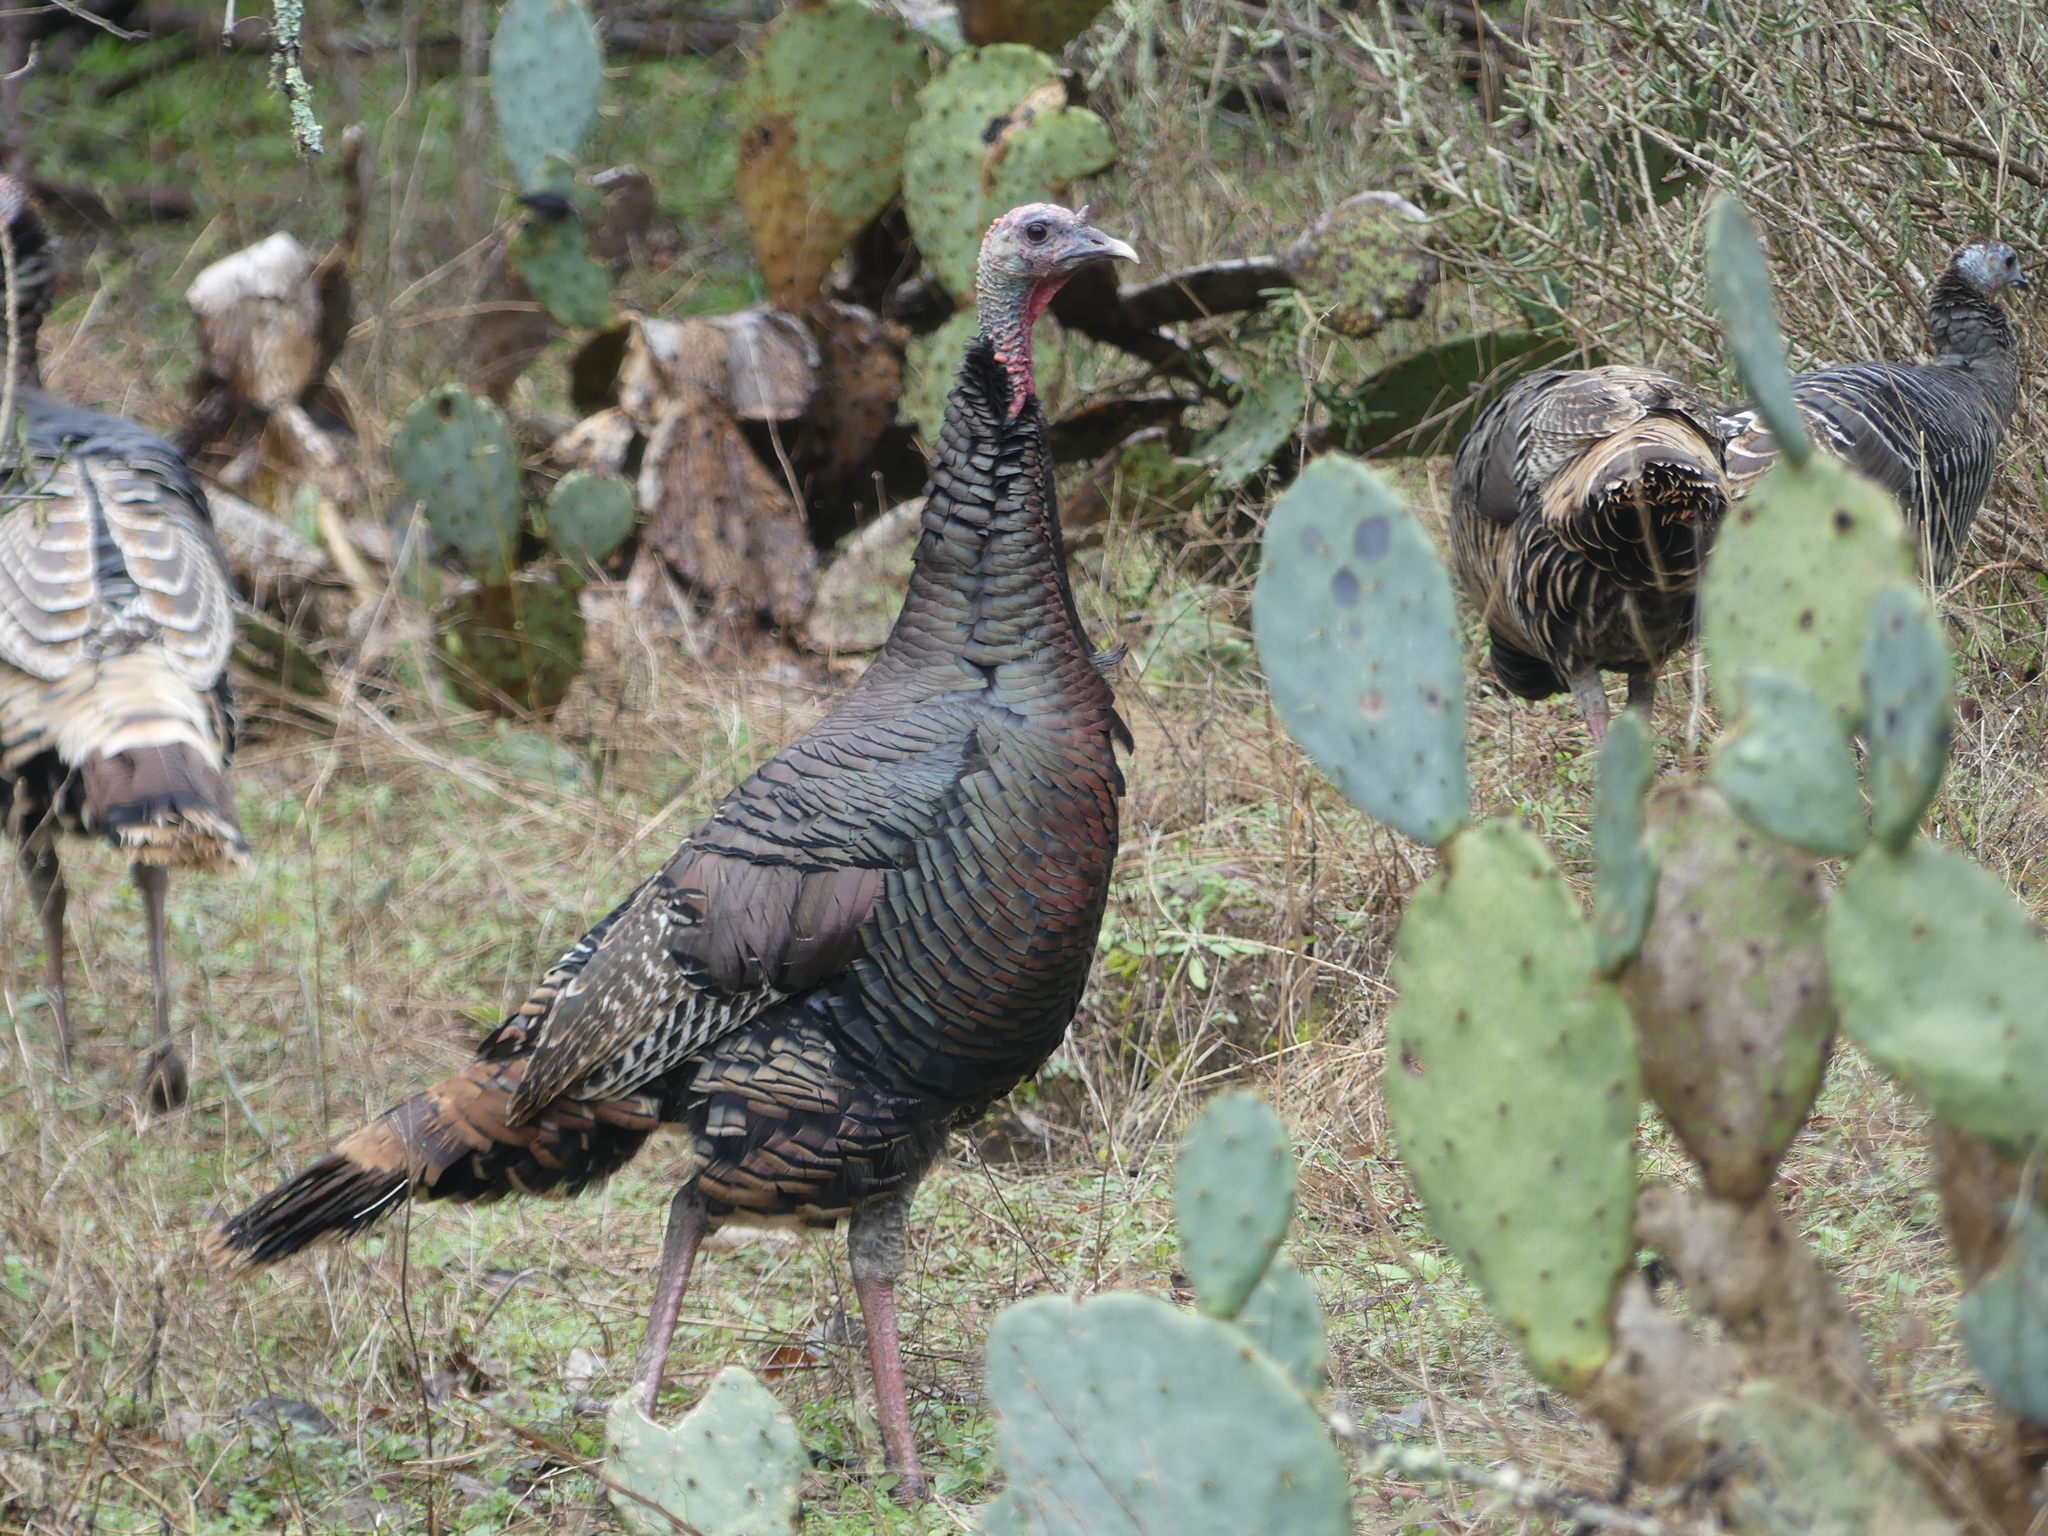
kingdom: Animalia
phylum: Chordata
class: Aves
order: Galliformes
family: Phasianidae
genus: Meleagris
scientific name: Meleagris gallopavo
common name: Wild turkey
